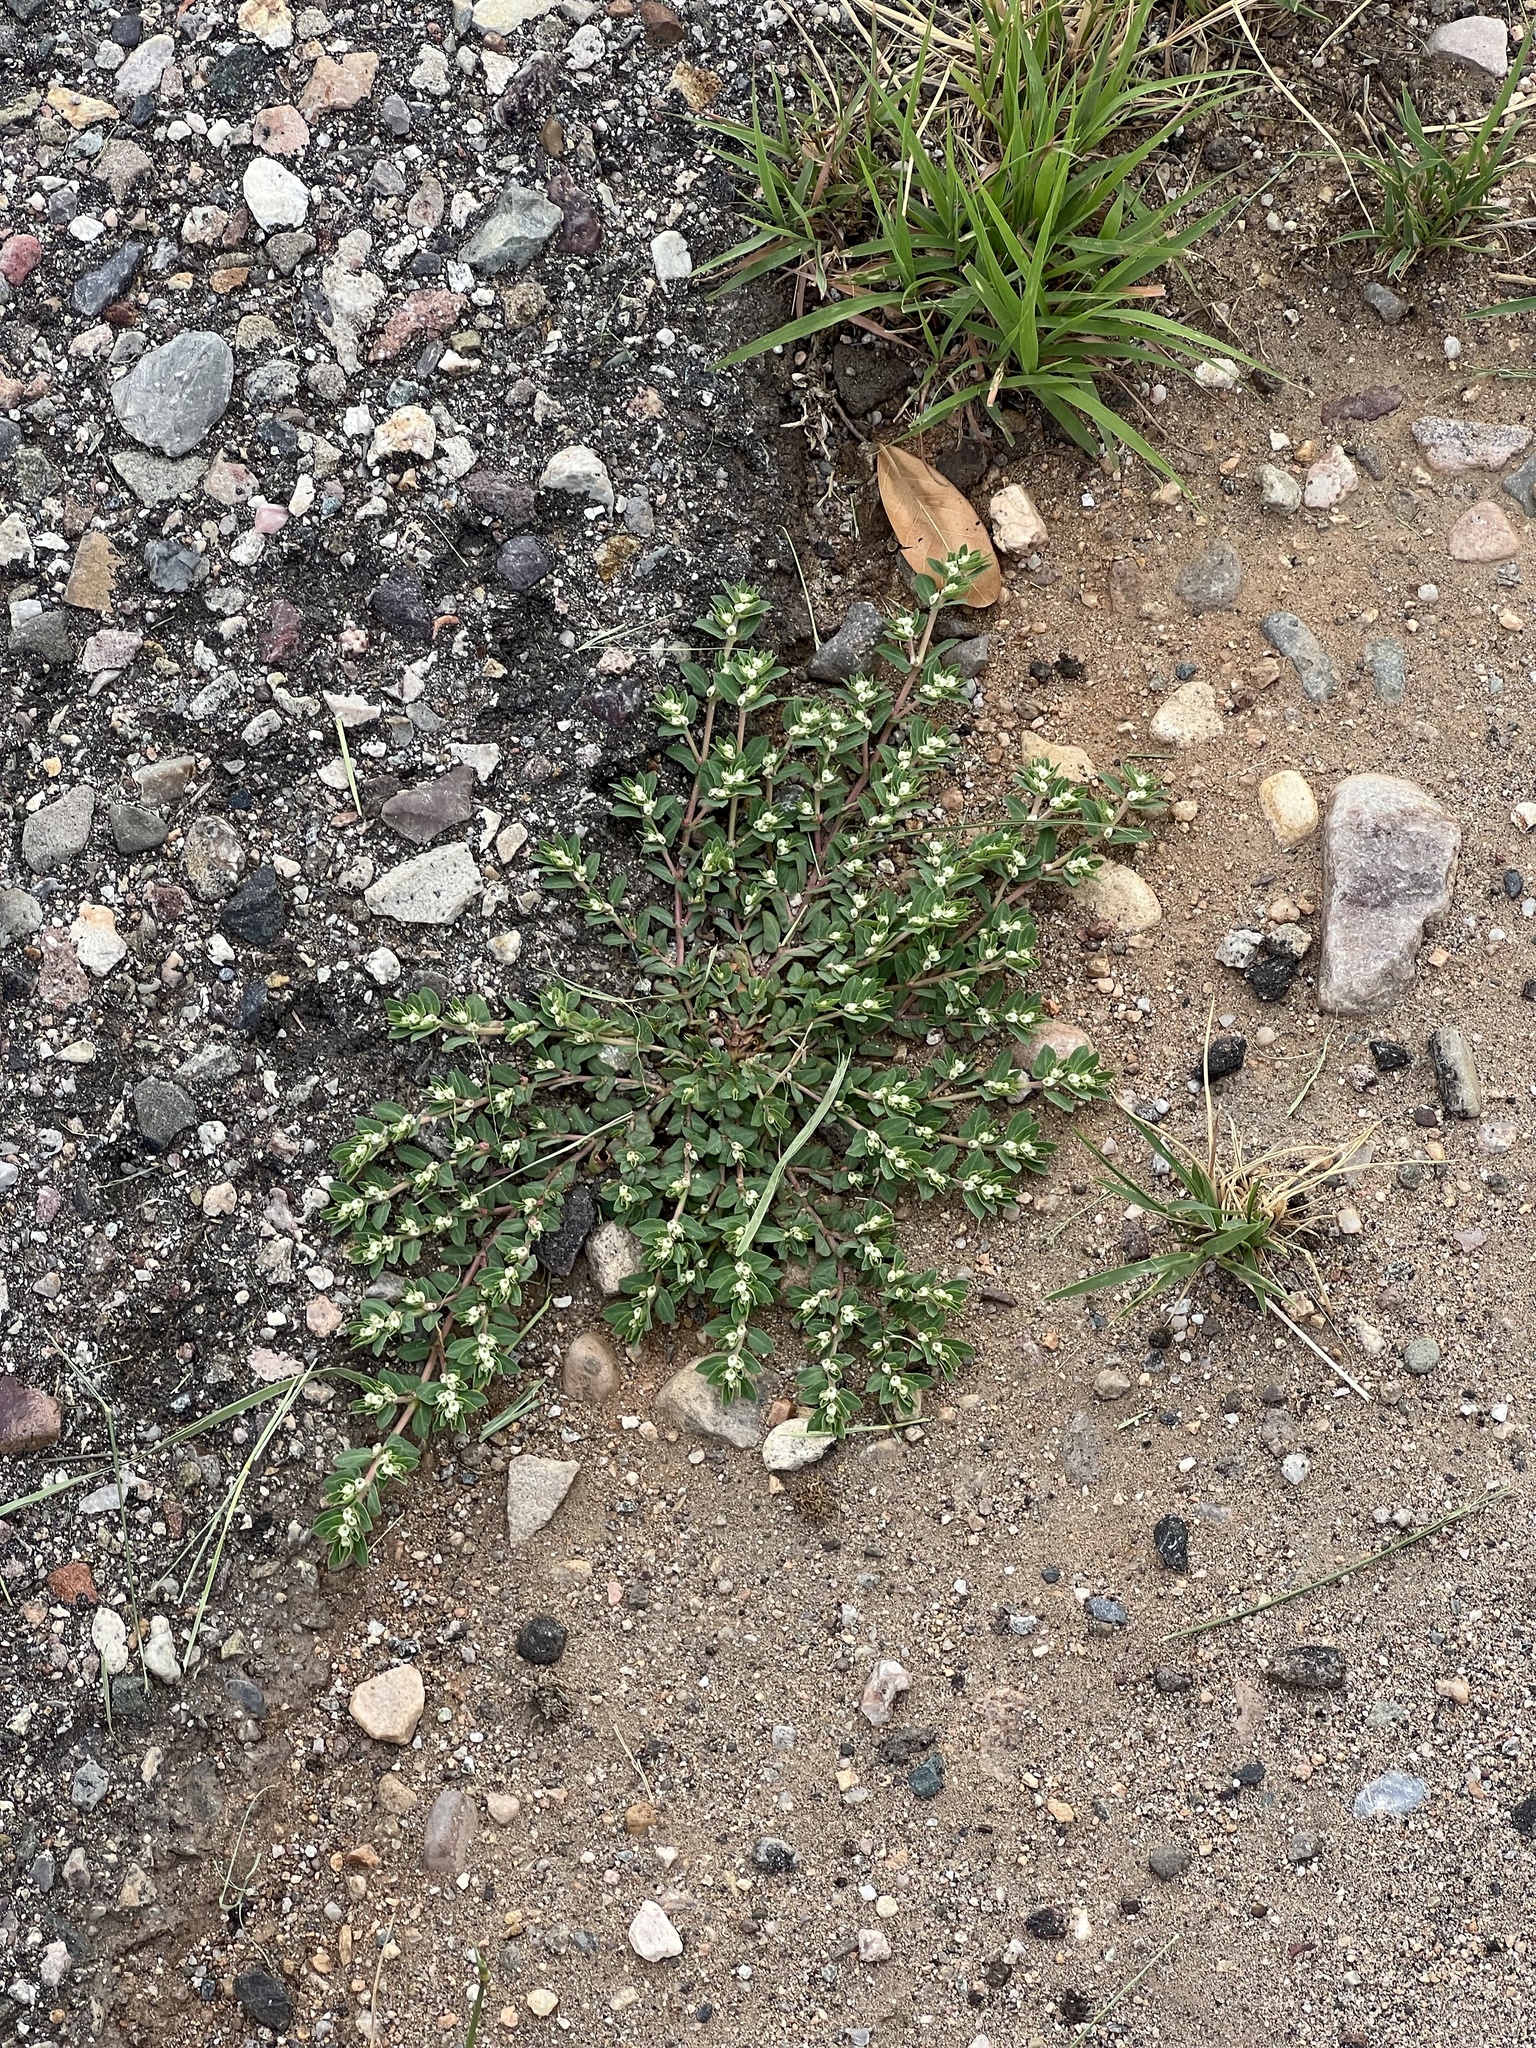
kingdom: Plantae
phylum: Tracheophyta
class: Magnoliopsida
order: Malpighiales
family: Euphorbiaceae
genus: Euphorbia
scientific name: Euphorbia indivisa
